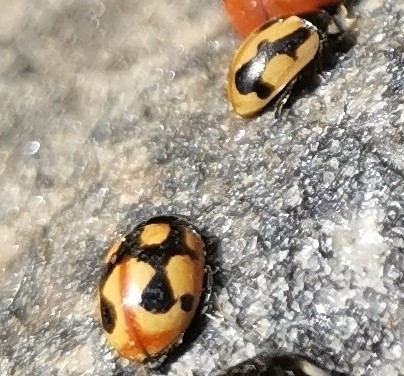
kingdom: Animalia
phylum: Arthropoda
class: Insecta
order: Coleoptera
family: Coccinellidae
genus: Coccinella
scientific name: Coccinella hieroglyphica
